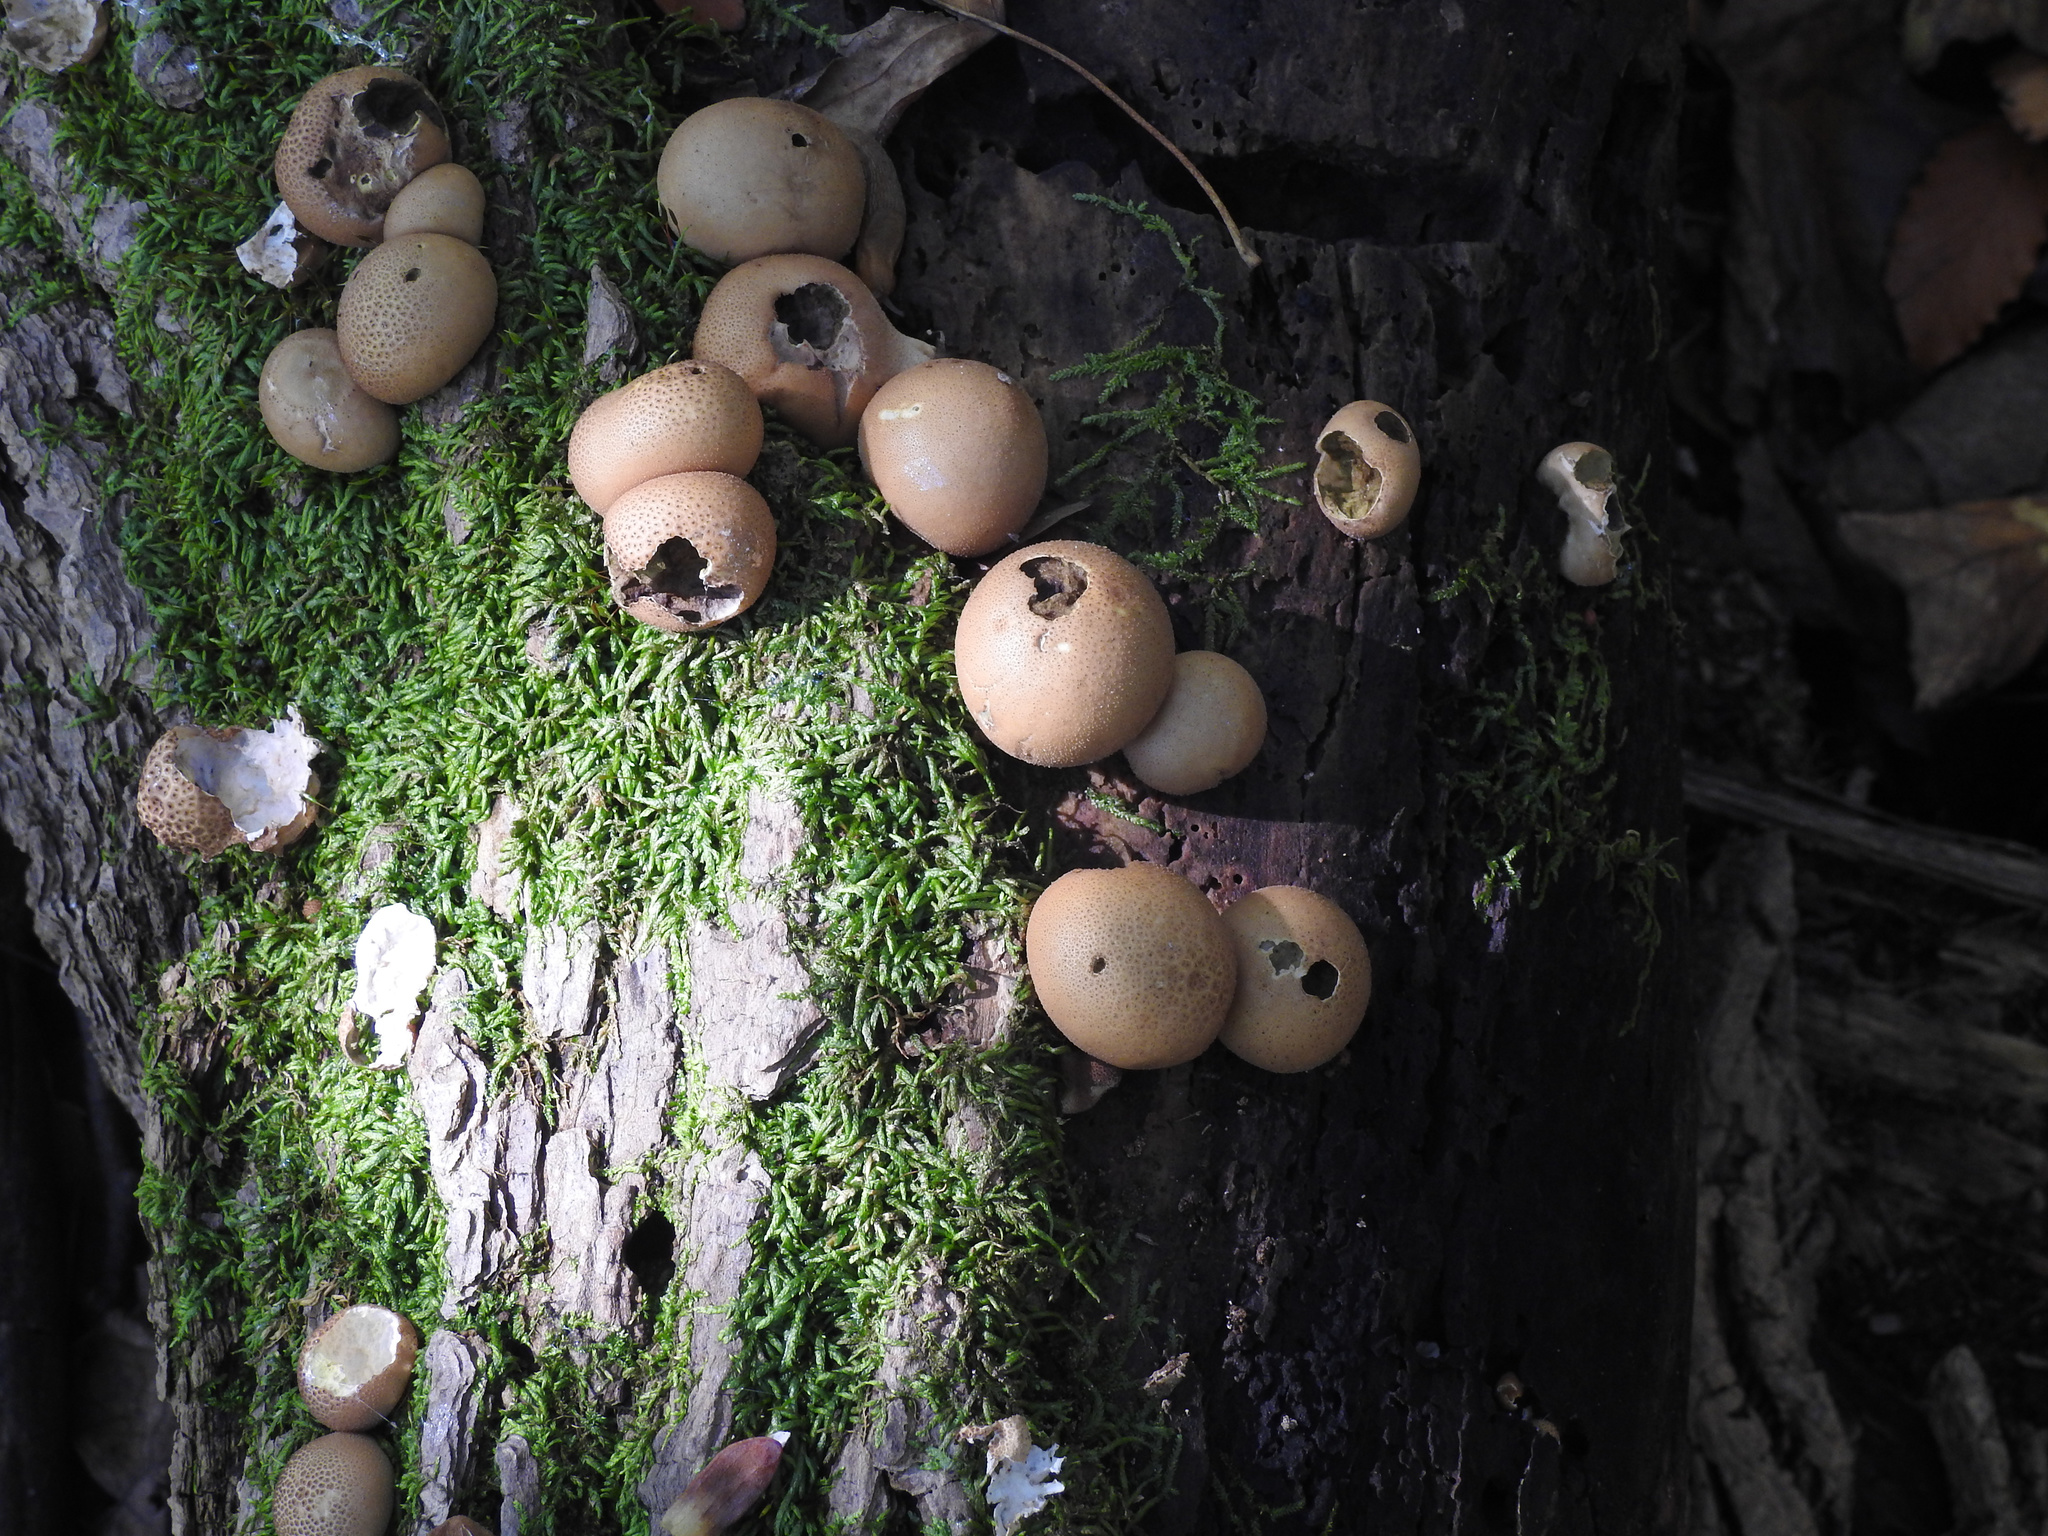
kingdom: Fungi
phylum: Basidiomycota
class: Agaricomycetes
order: Agaricales
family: Lycoperdaceae
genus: Apioperdon
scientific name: Apioperdon pyriforme
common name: Pear-shaped puffball
